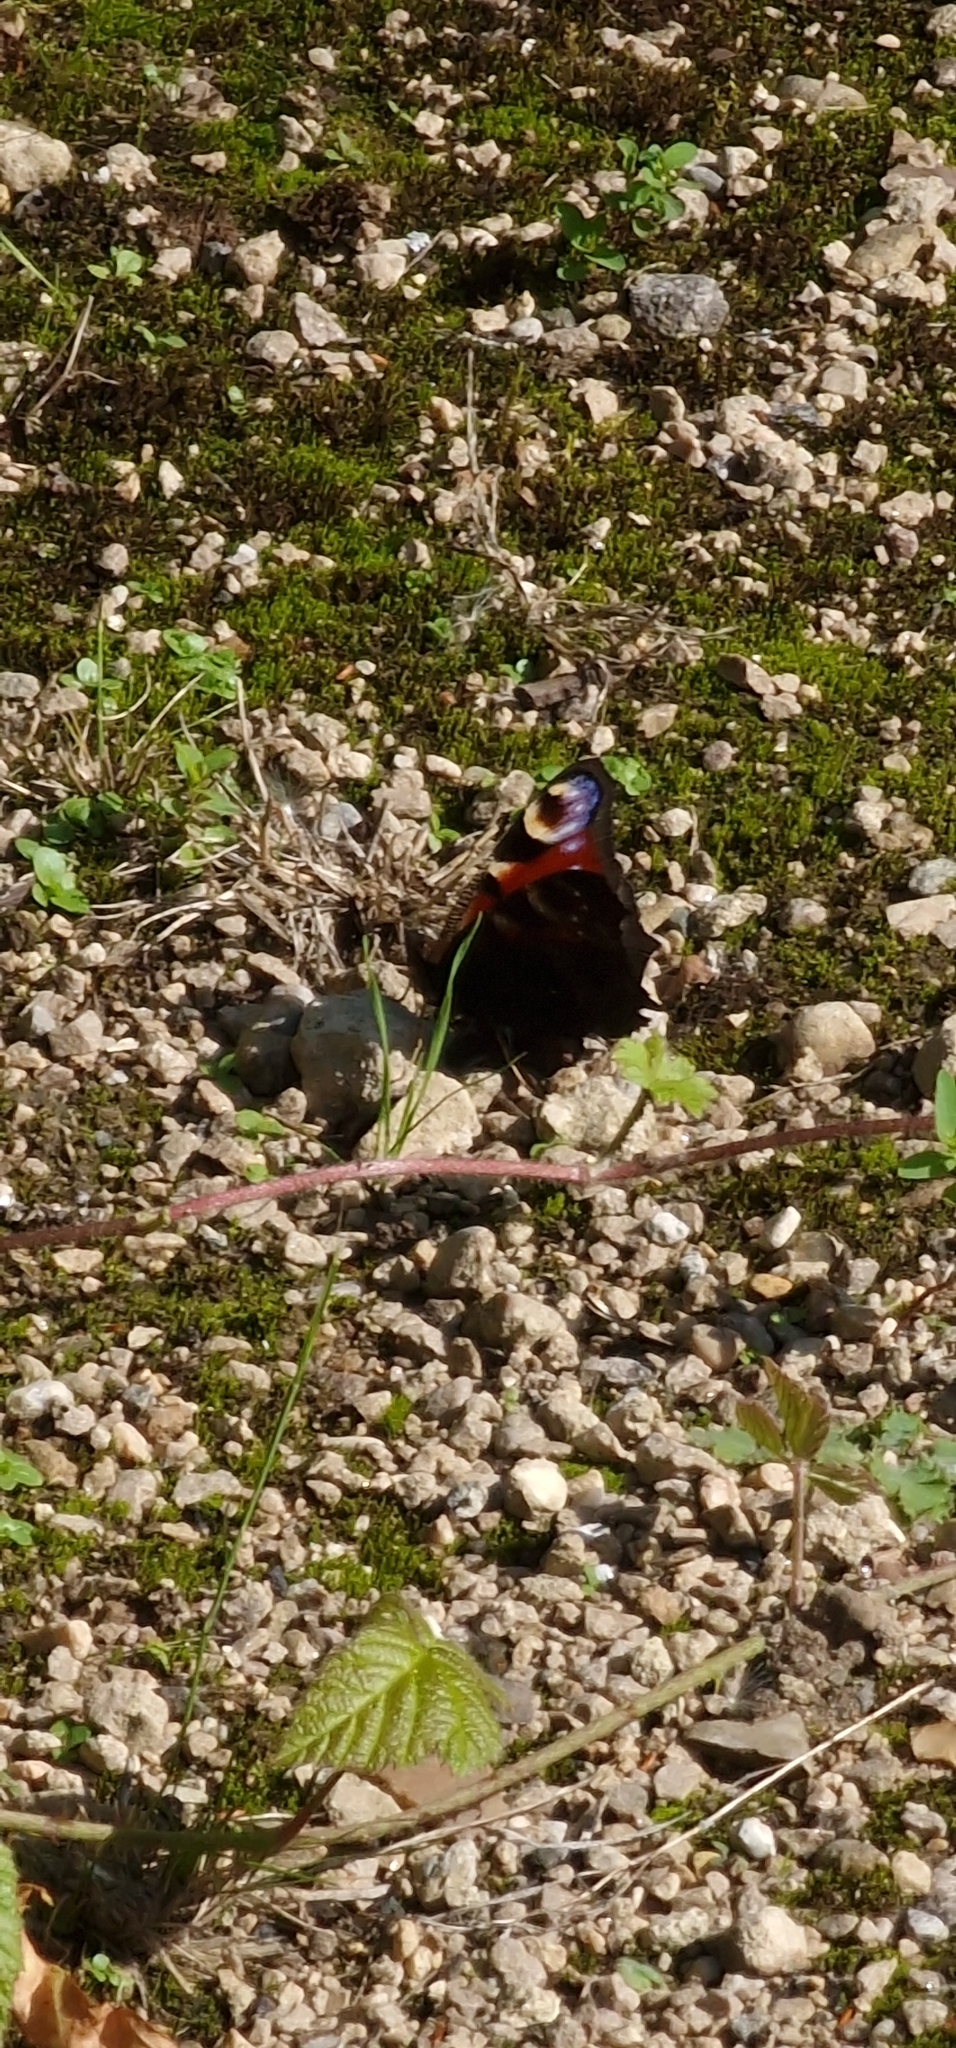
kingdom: Animalia
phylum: Arthropoda
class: Insecta
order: Lepidoptera
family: Nymphalidae
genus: Aglais
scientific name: Aglais io
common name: Peacock
